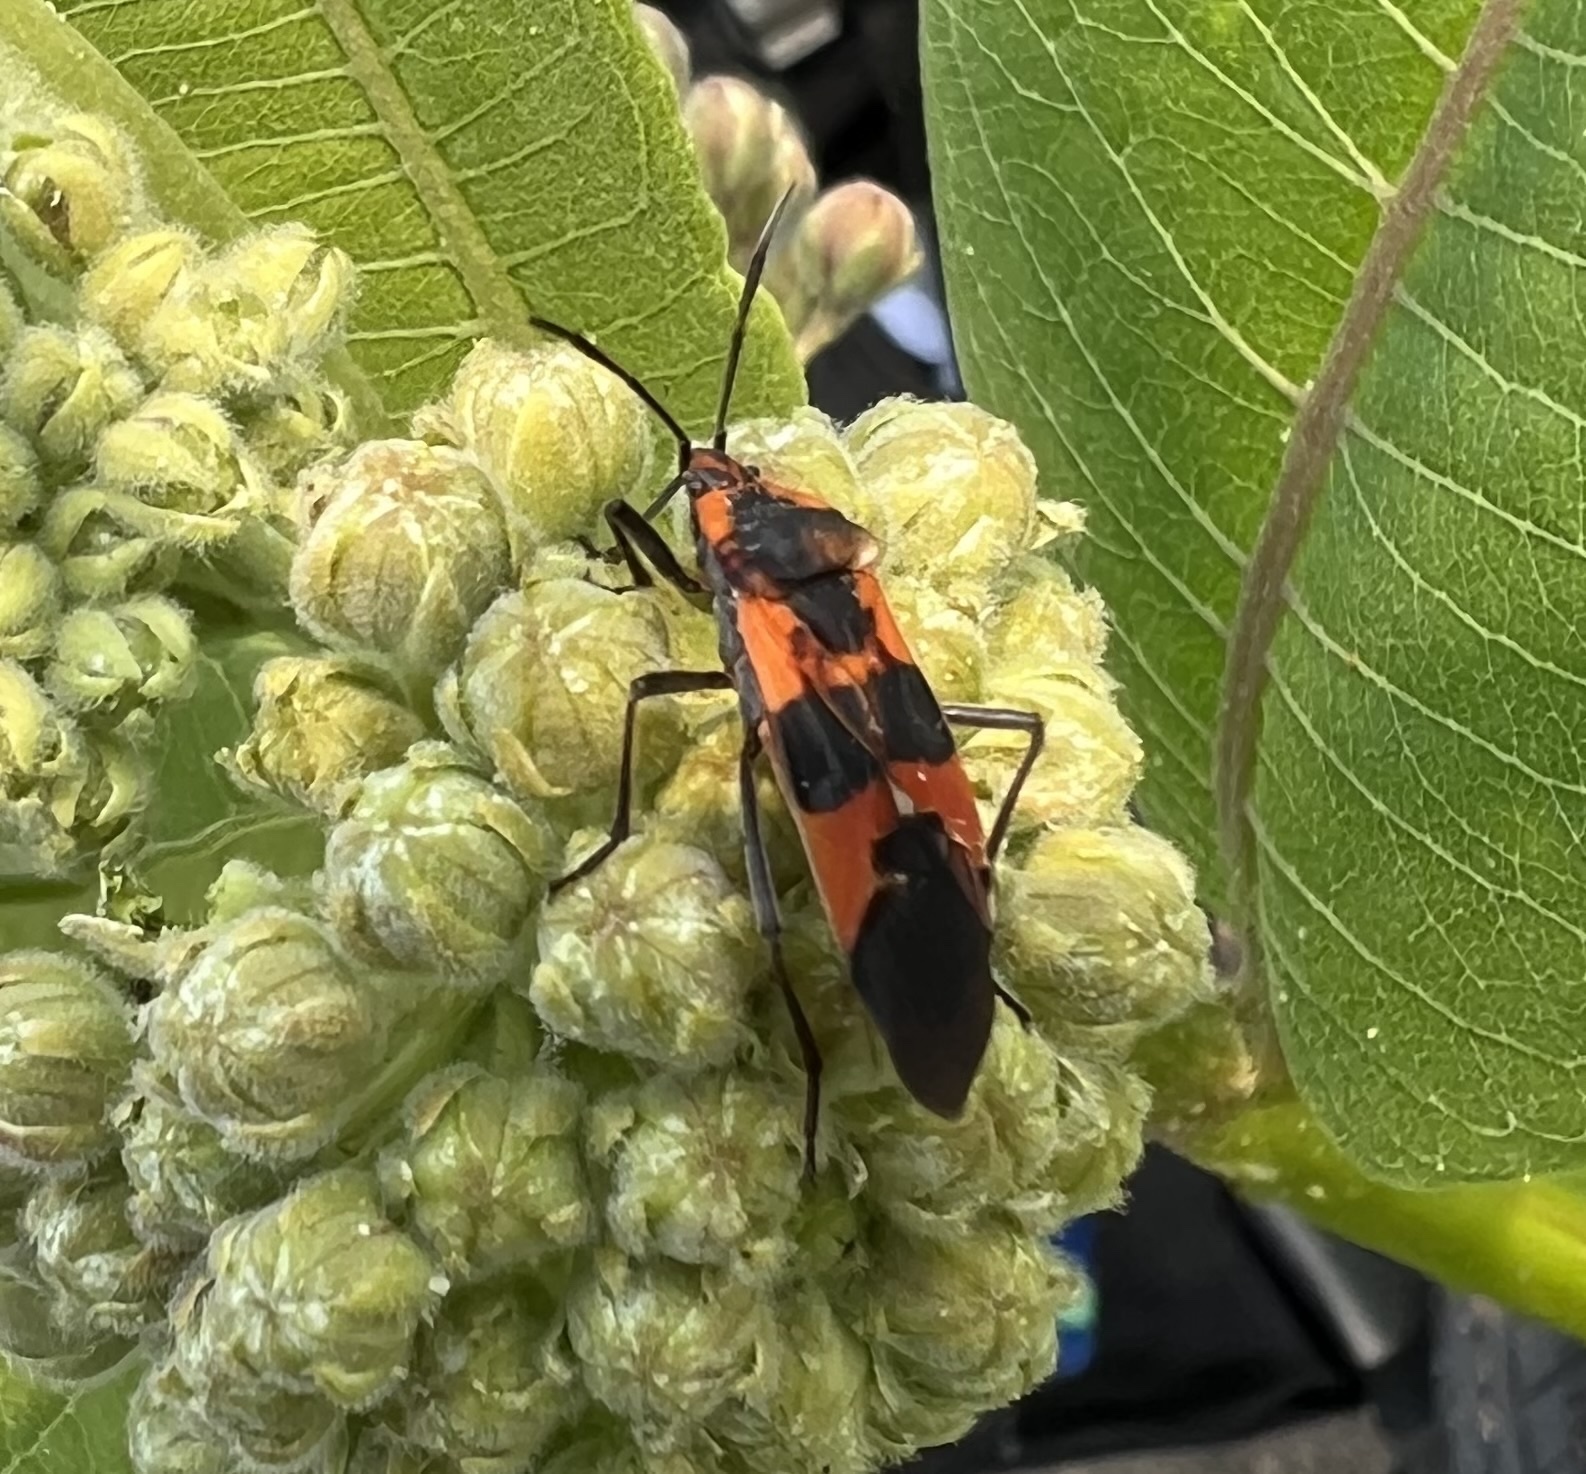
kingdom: Animalia
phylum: Arthropoda
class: Insecta
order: Hemiptera
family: Lygaeidae
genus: Oncopeltus
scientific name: Oncopeltus fasciatus
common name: Large milkweed bug
